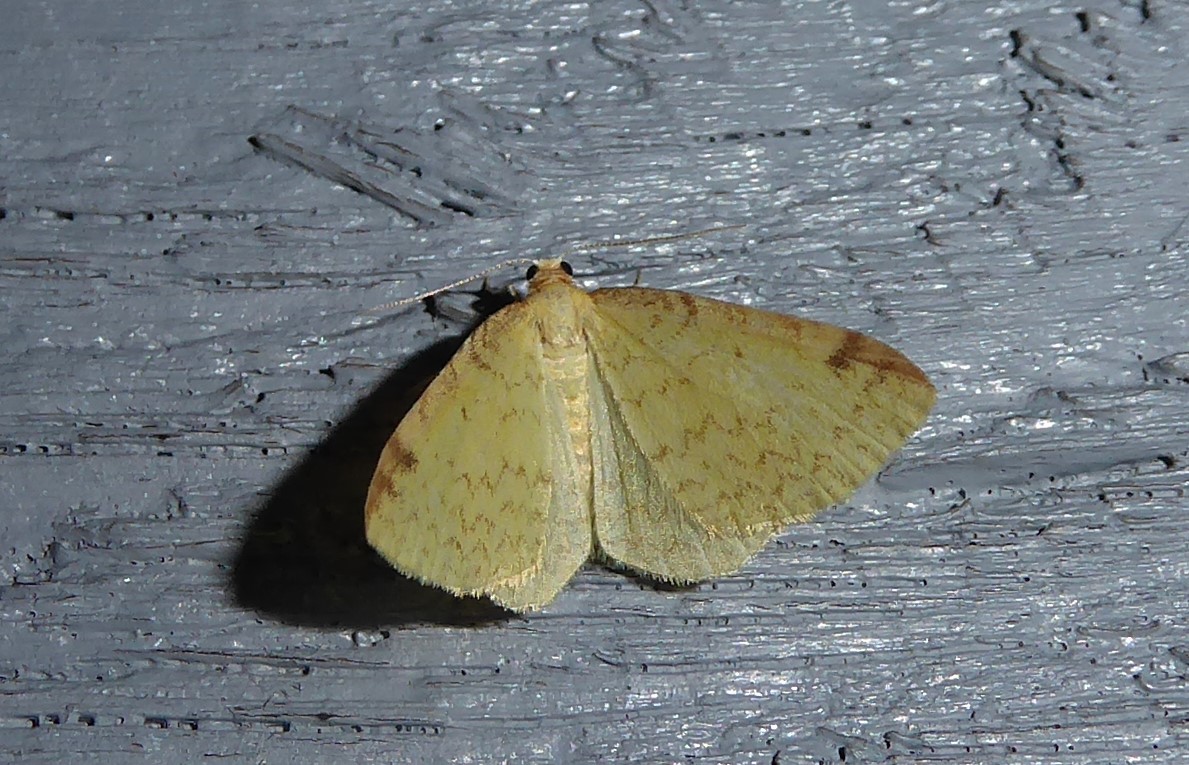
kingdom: Animalia
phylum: Arthropoda
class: Insecta
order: Lepidoptera
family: Geometridae
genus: Epiphryne
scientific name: Epiphryne undosata
